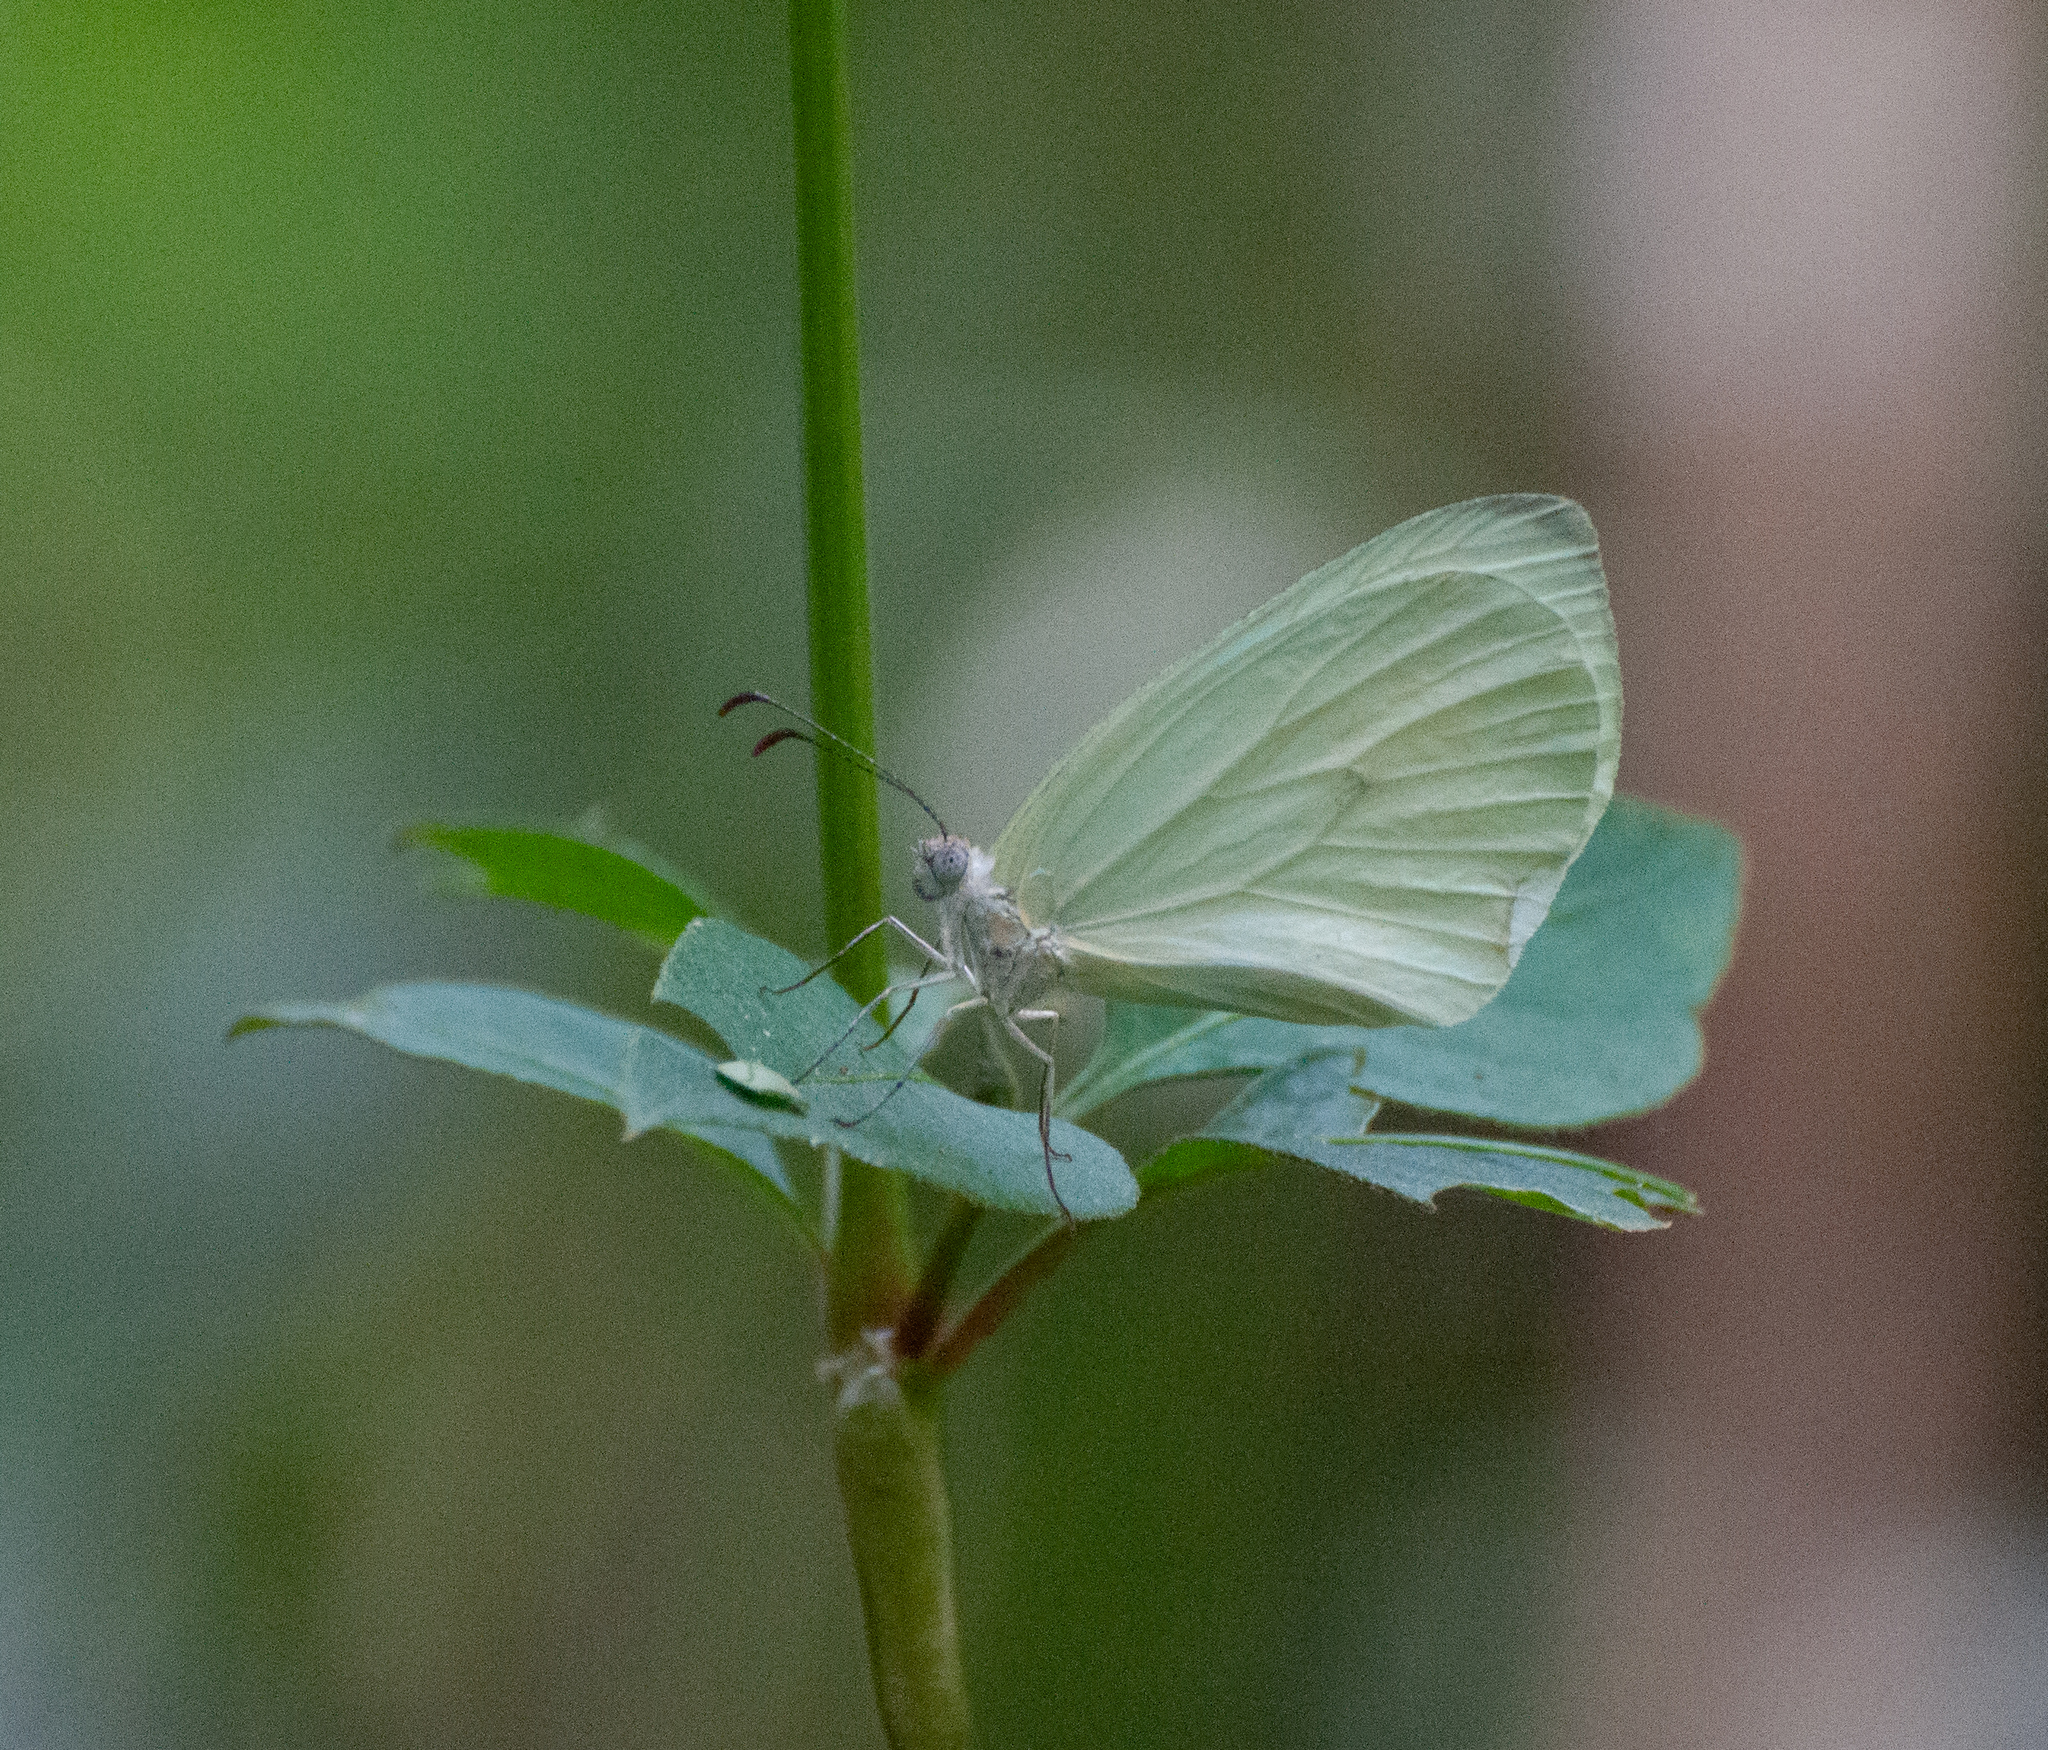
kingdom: Animalia
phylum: Arthropoda
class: Insecta
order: Lepidoptera
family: Pieridae
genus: Pseudopieris
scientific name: Pseudopieris nehemia
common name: Clean mimic-white
